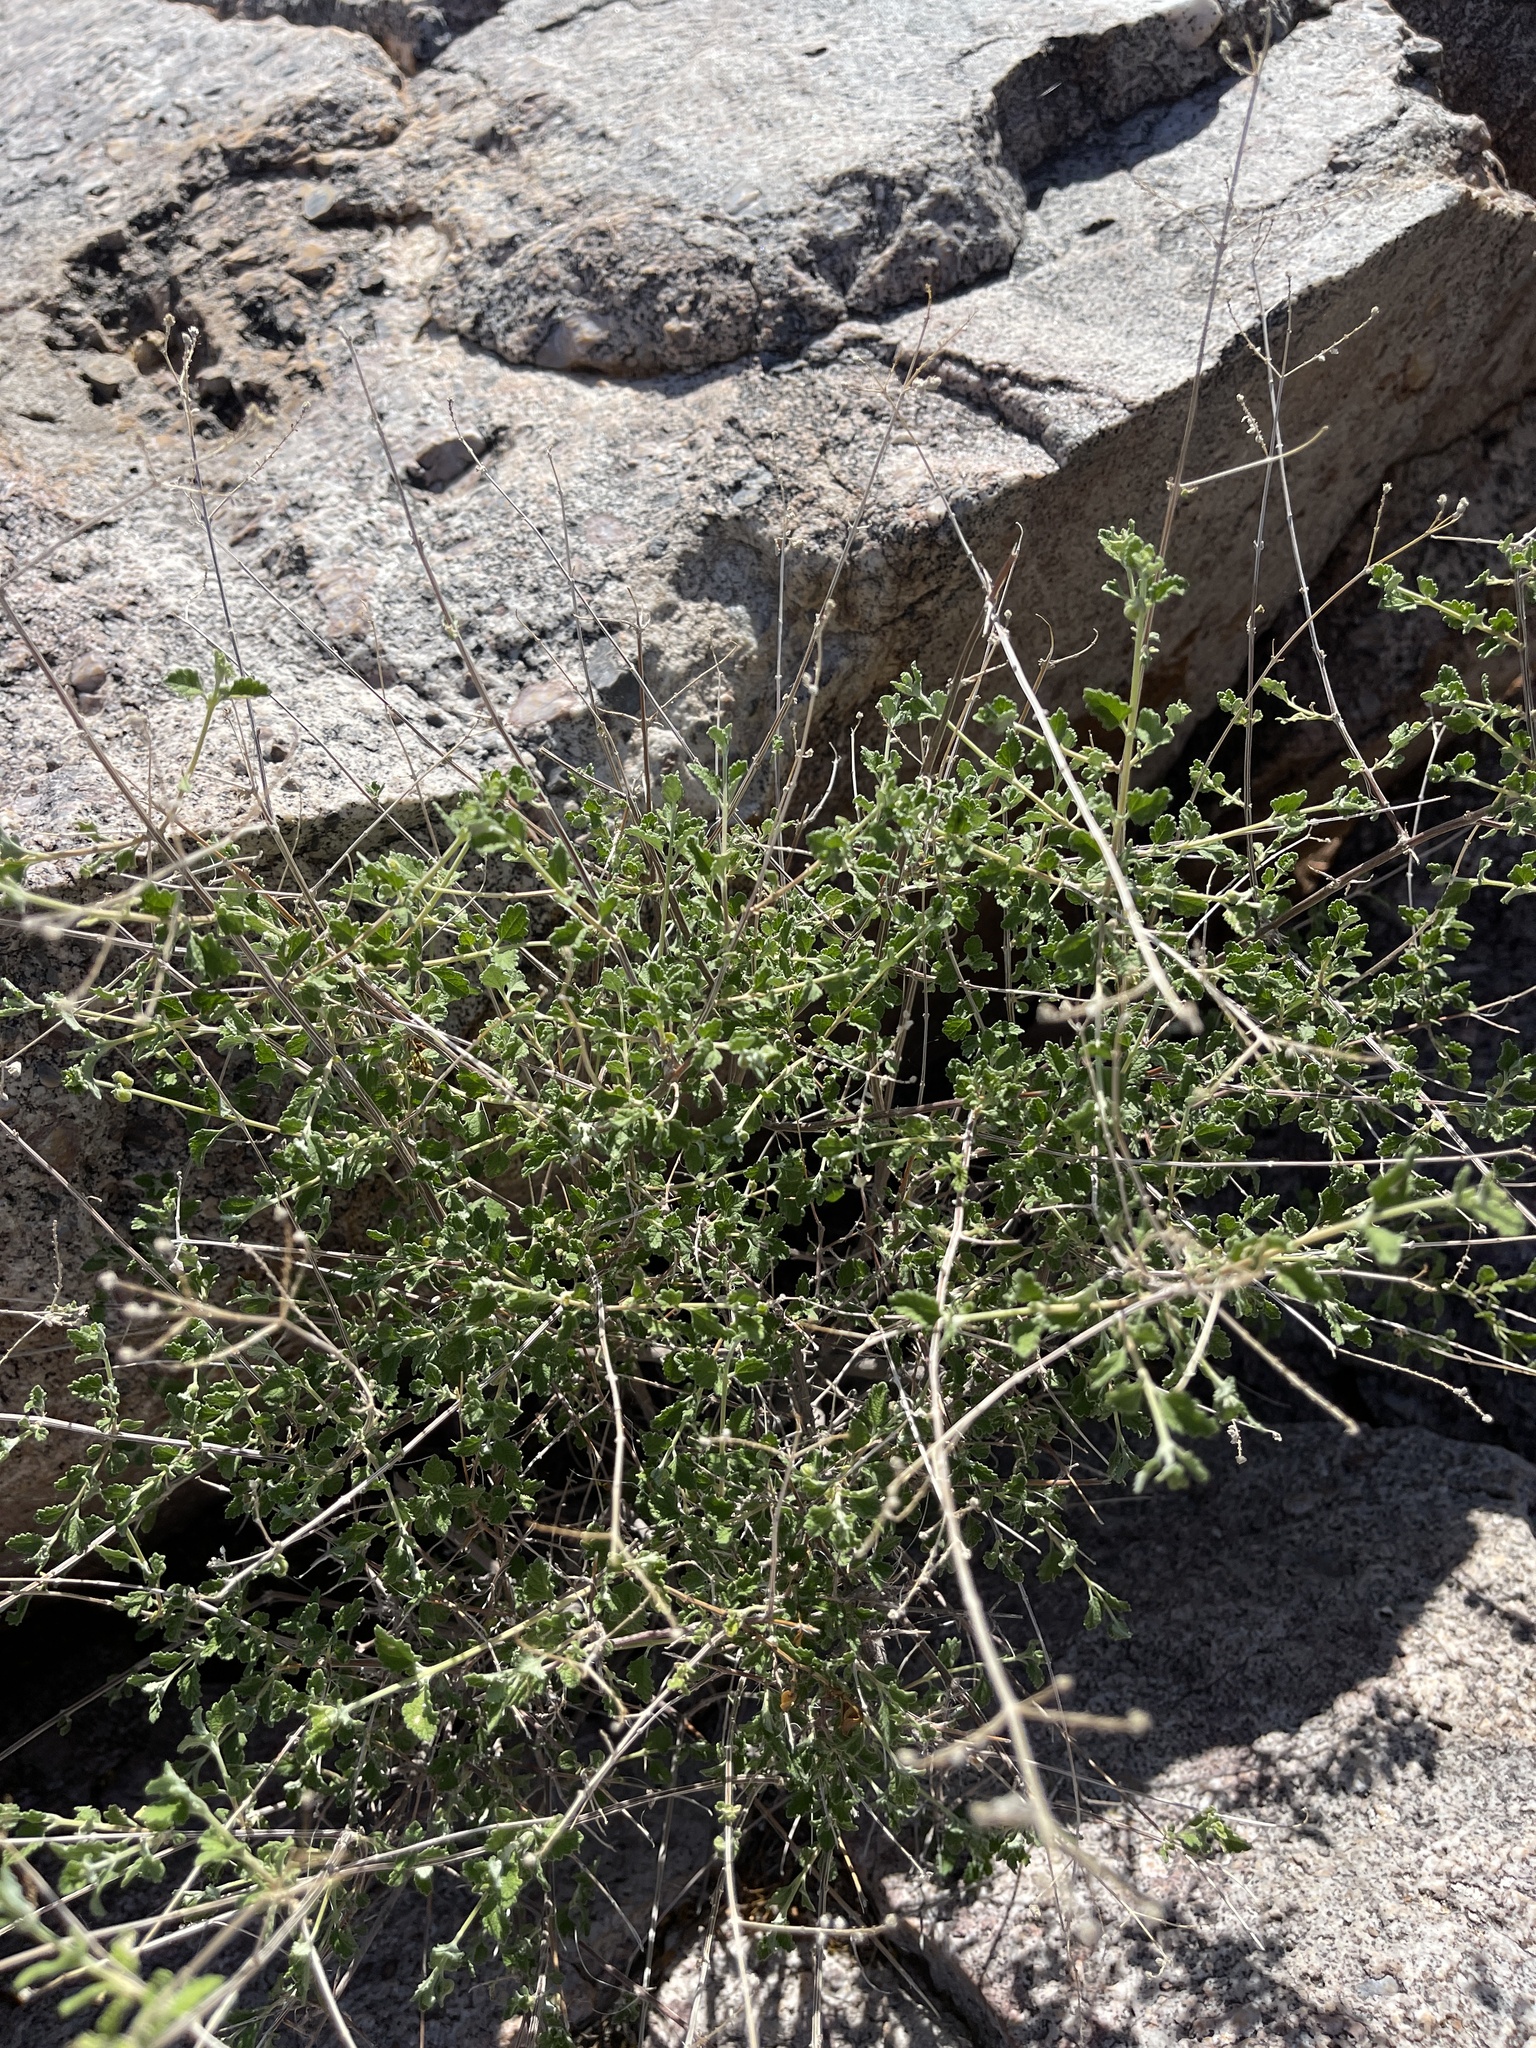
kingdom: Plantae
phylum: Tracheophyta
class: Magnoliopsida
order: Lamiales
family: Verbenaceae
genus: Aloysia
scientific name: Aloysia wrightii
